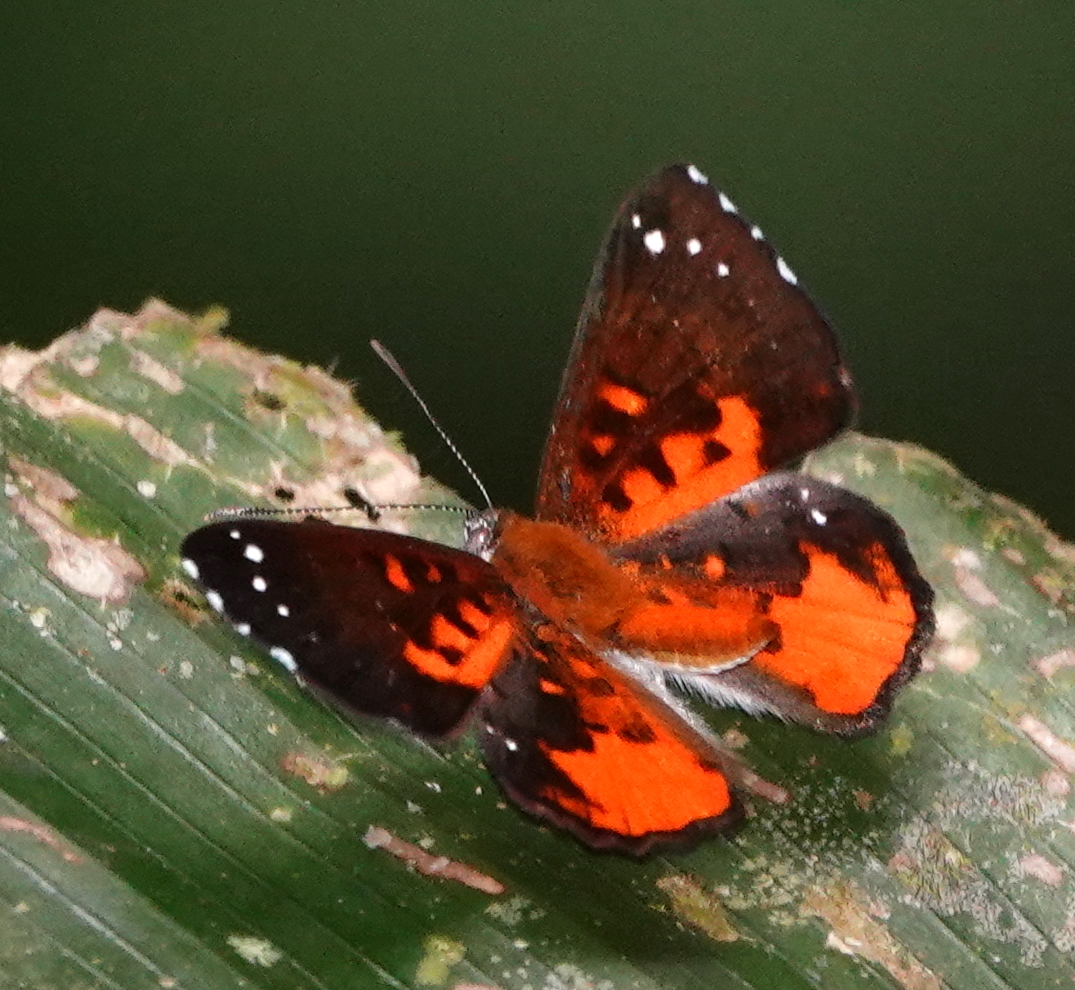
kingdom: Animalia
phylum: Arthropoda
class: Insecta
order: Lepidoptera
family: Riodinidae
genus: Polystichtis
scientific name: Polystichtis emylius
